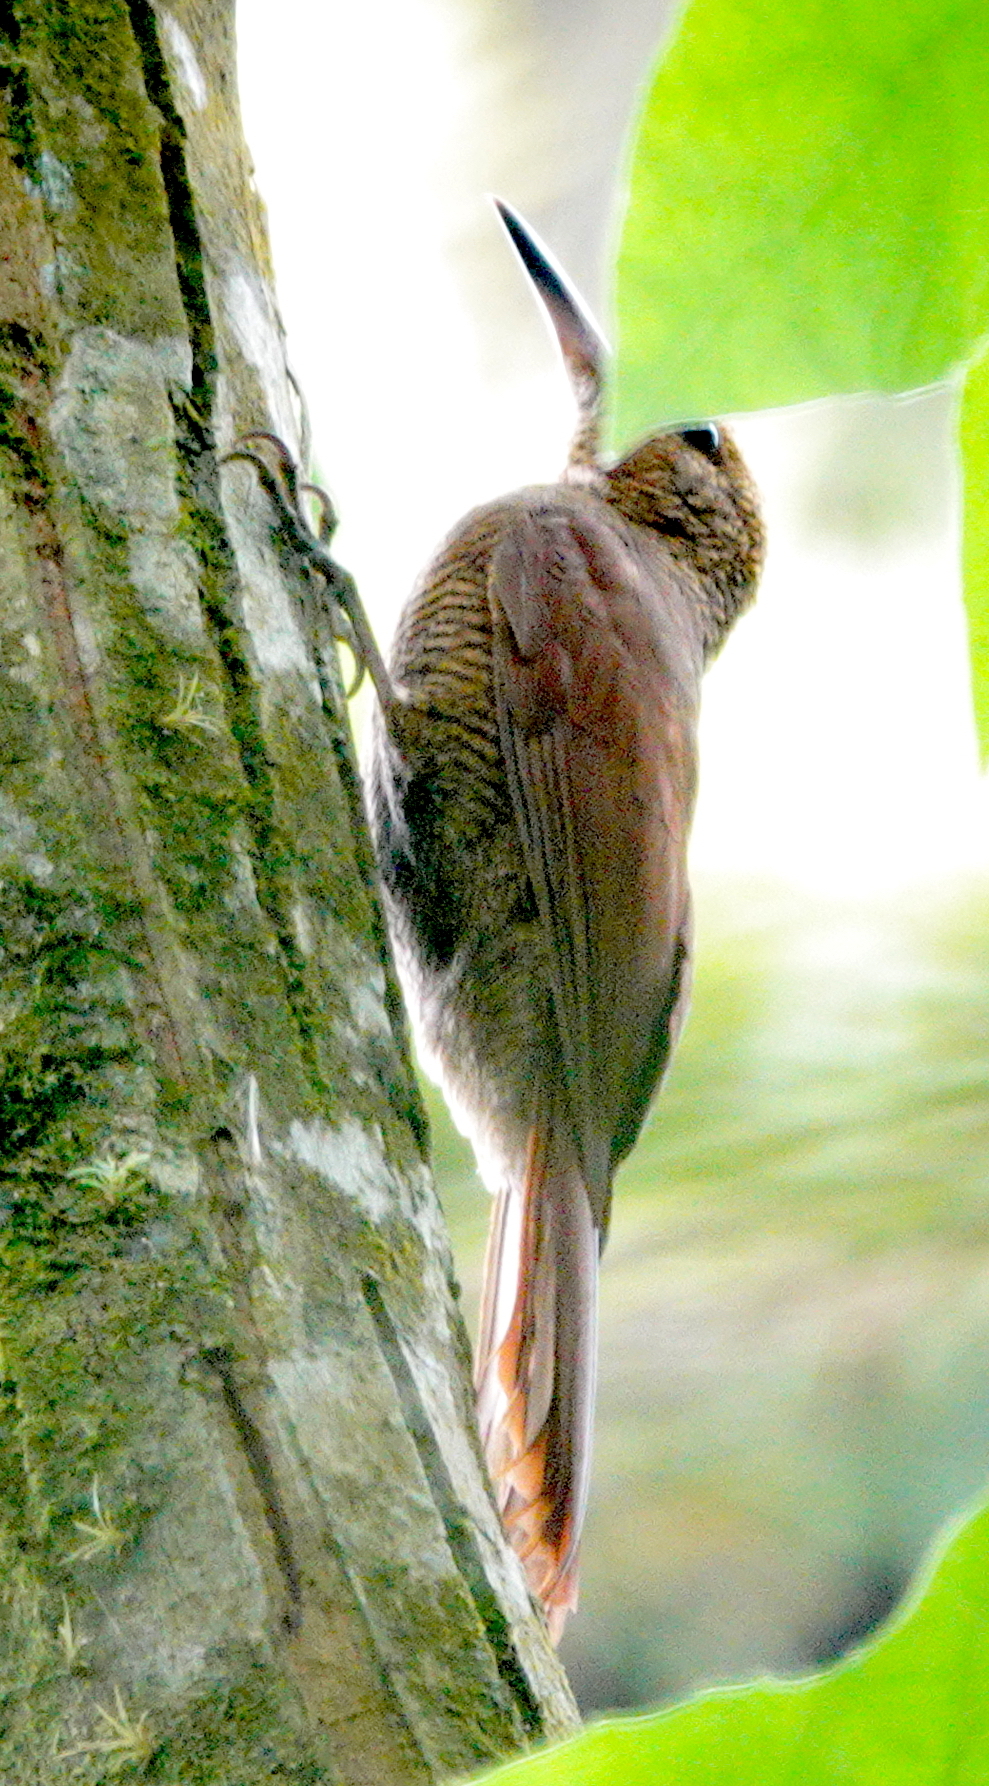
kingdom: Animalia
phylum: Chordata
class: Aves
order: Passeriformes
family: Furnariidae
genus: Dendrocolaptes
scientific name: Dendrocolaptes sanctithomae
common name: Northern barred-woodcreeper
